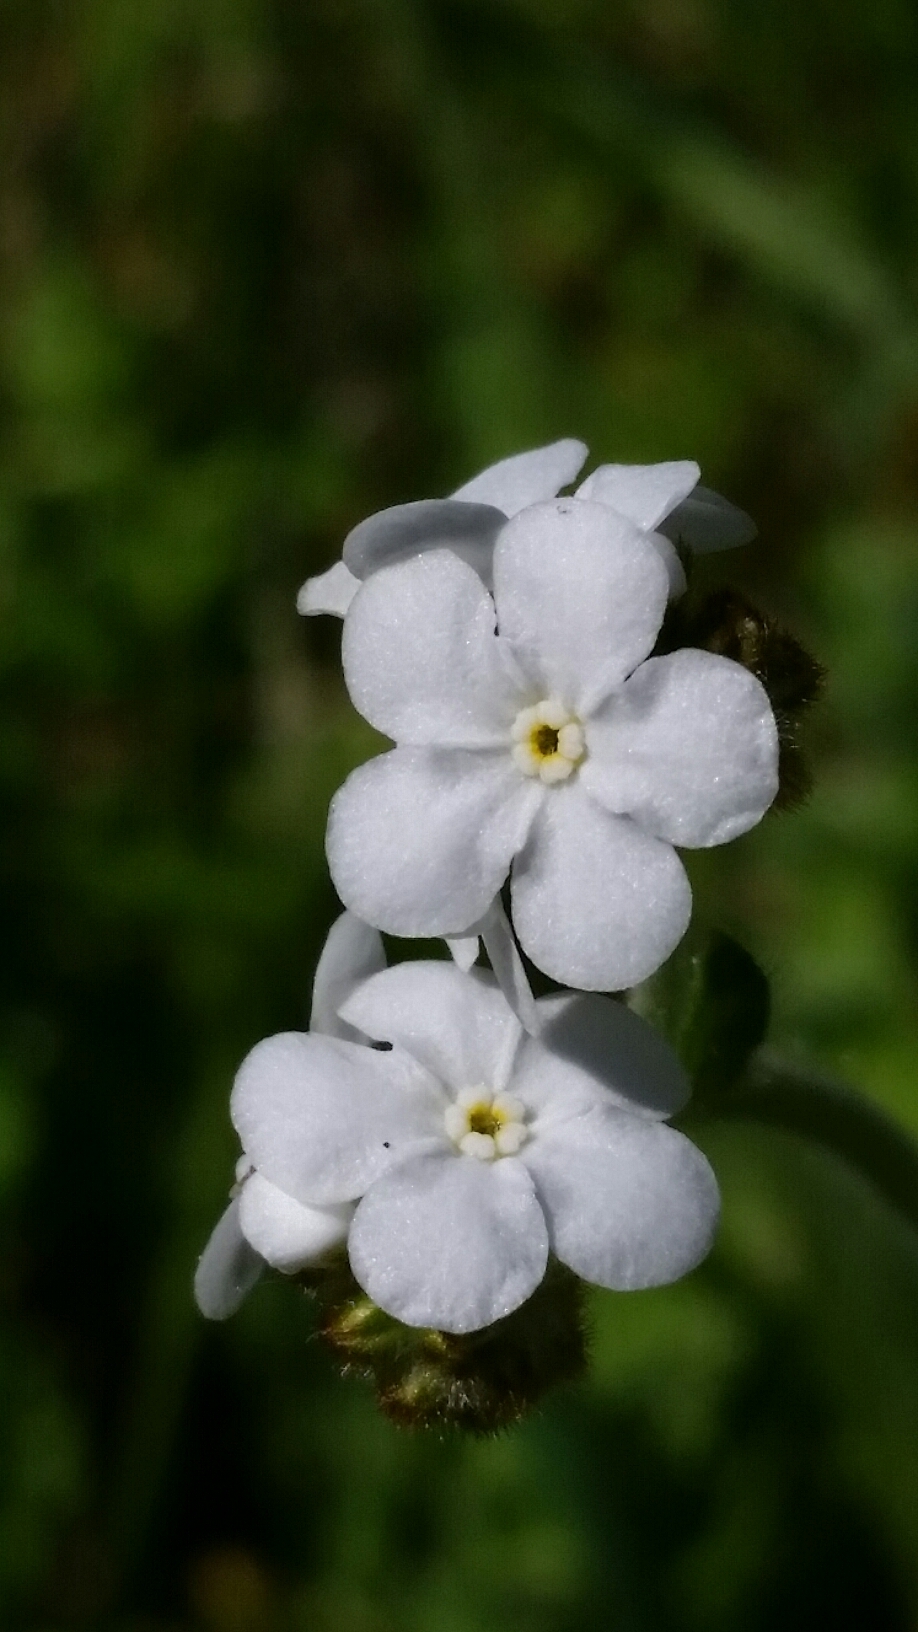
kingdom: Plantae
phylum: Tracheophyta
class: Magnoliopsida
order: Boraginales
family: Boraginaceae
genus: Plagiobothrys
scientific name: Plagiobothrys nothofulvus
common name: Popcorn-flower
